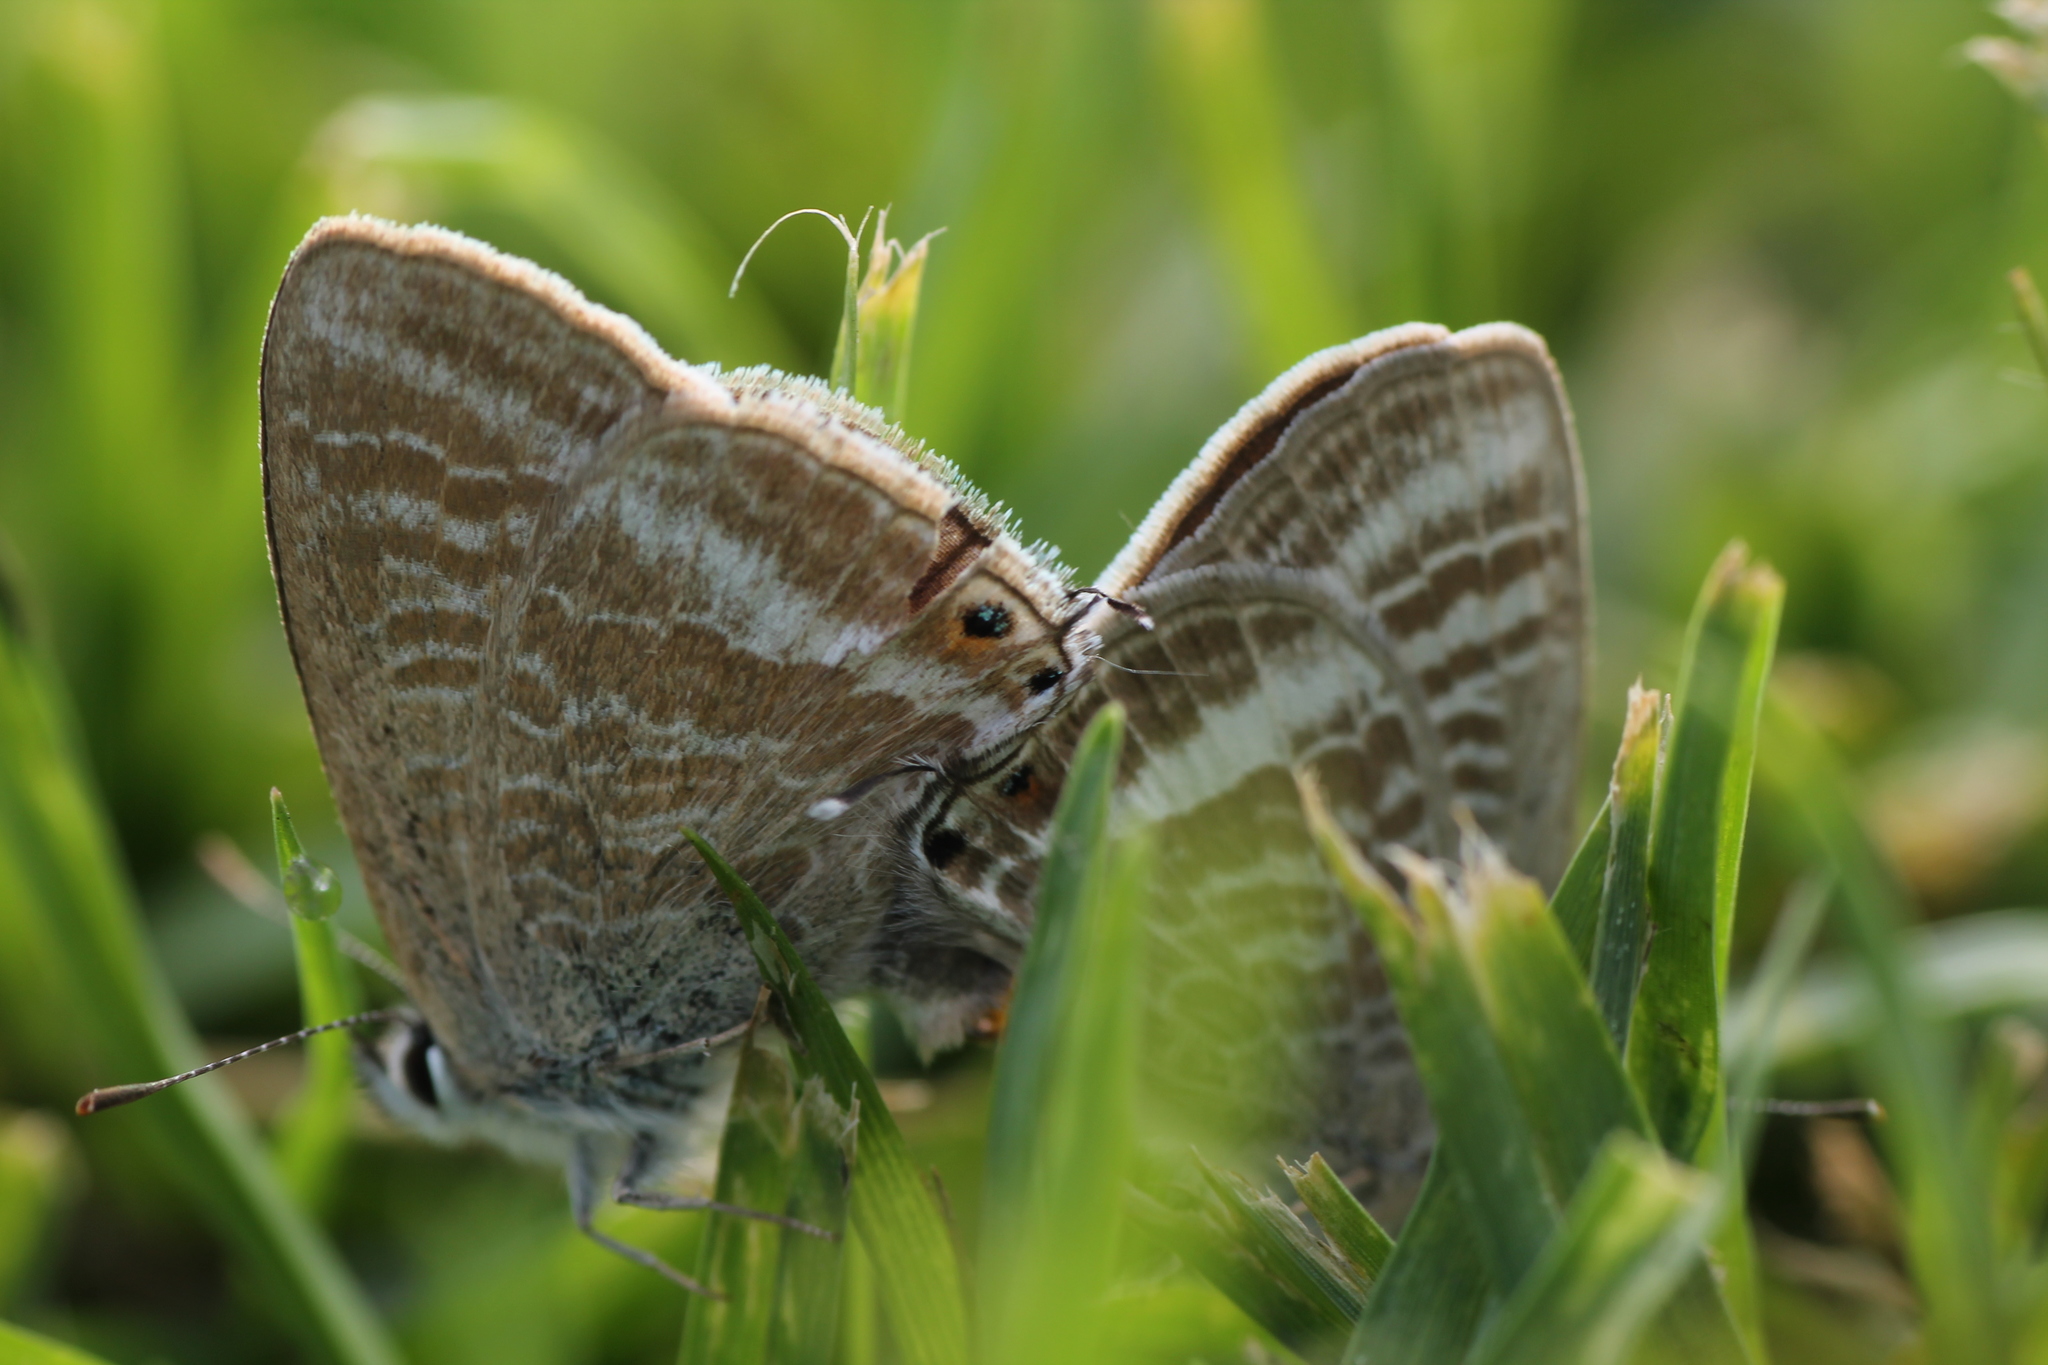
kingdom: Animalia
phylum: Arthropoda
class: Insecta
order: Lepidoptera
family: Lycaenidae
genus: Lampides
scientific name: Lampides boeticus
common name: Long-tailed blue
